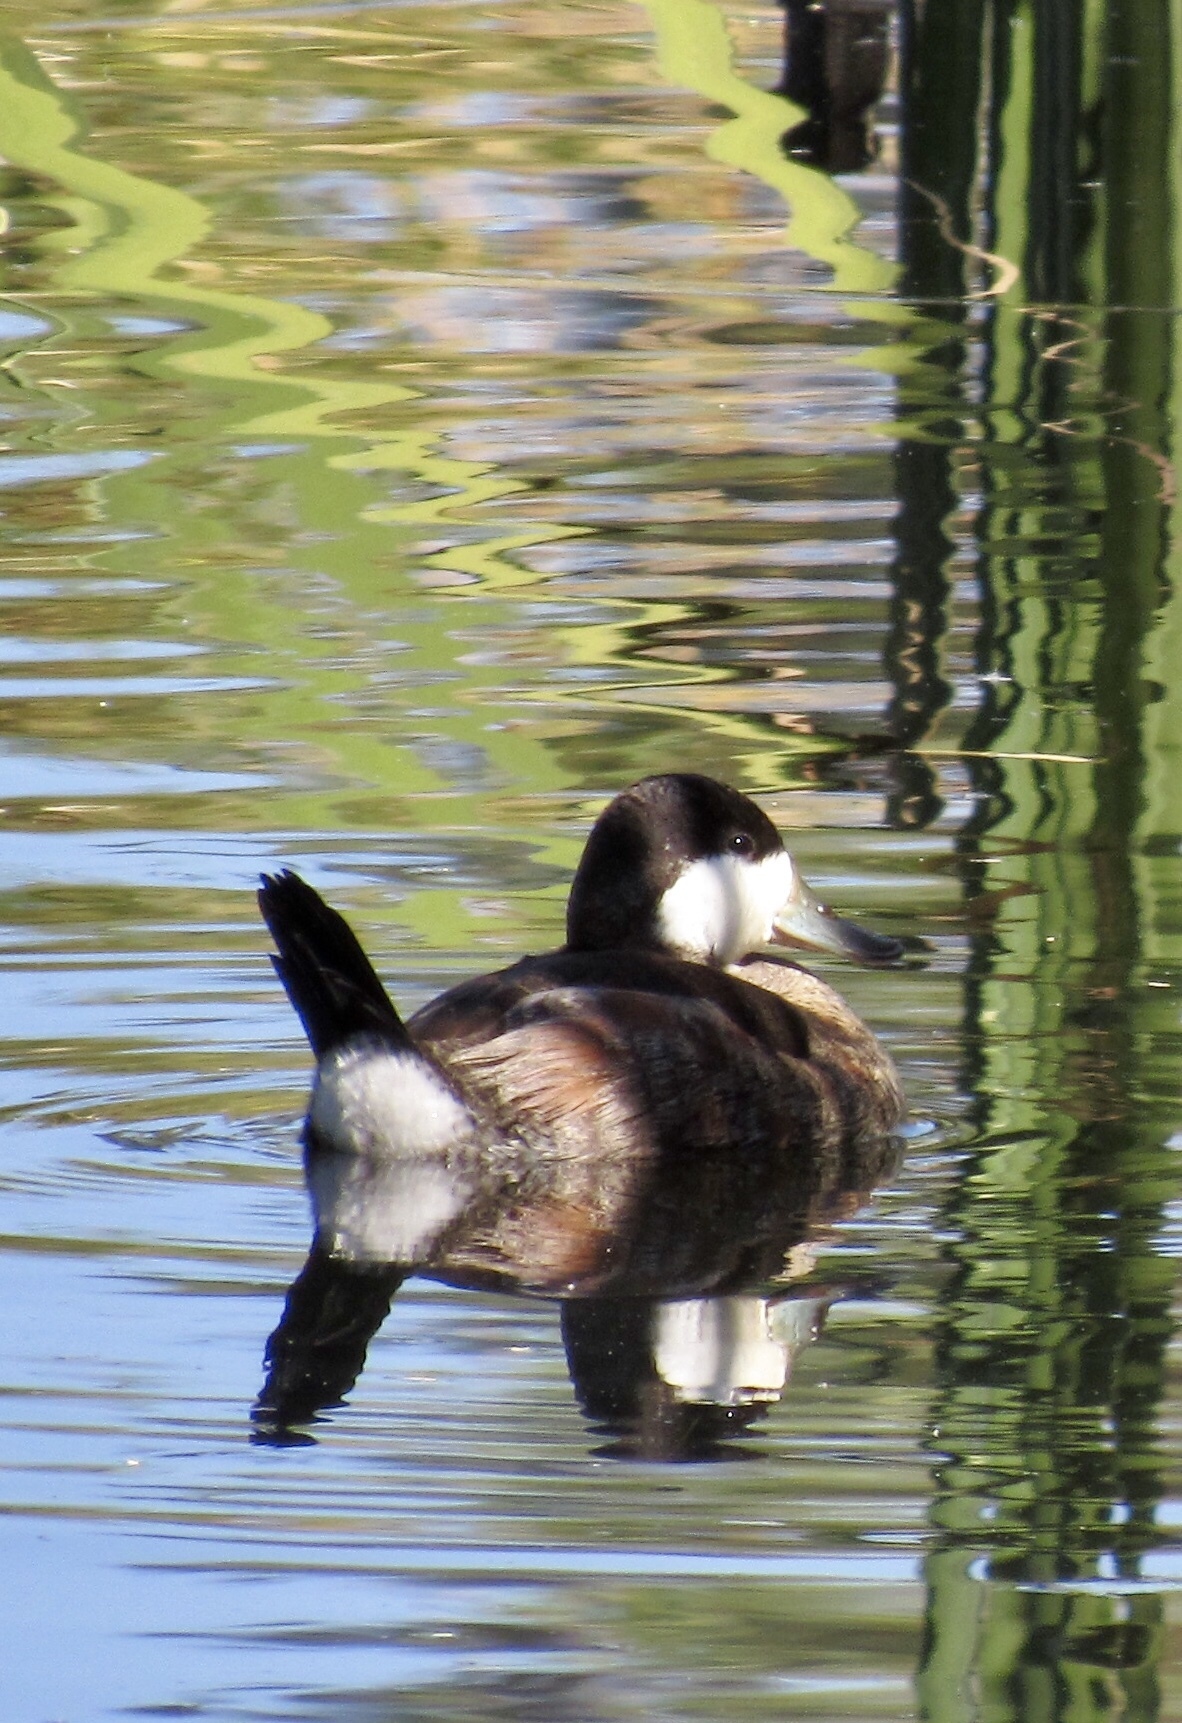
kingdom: Animalia
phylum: Chordata
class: Aves
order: Anseriformes
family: Anatidae
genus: Oxyura
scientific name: Oxyura jamaicensis
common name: Ruddy duck
